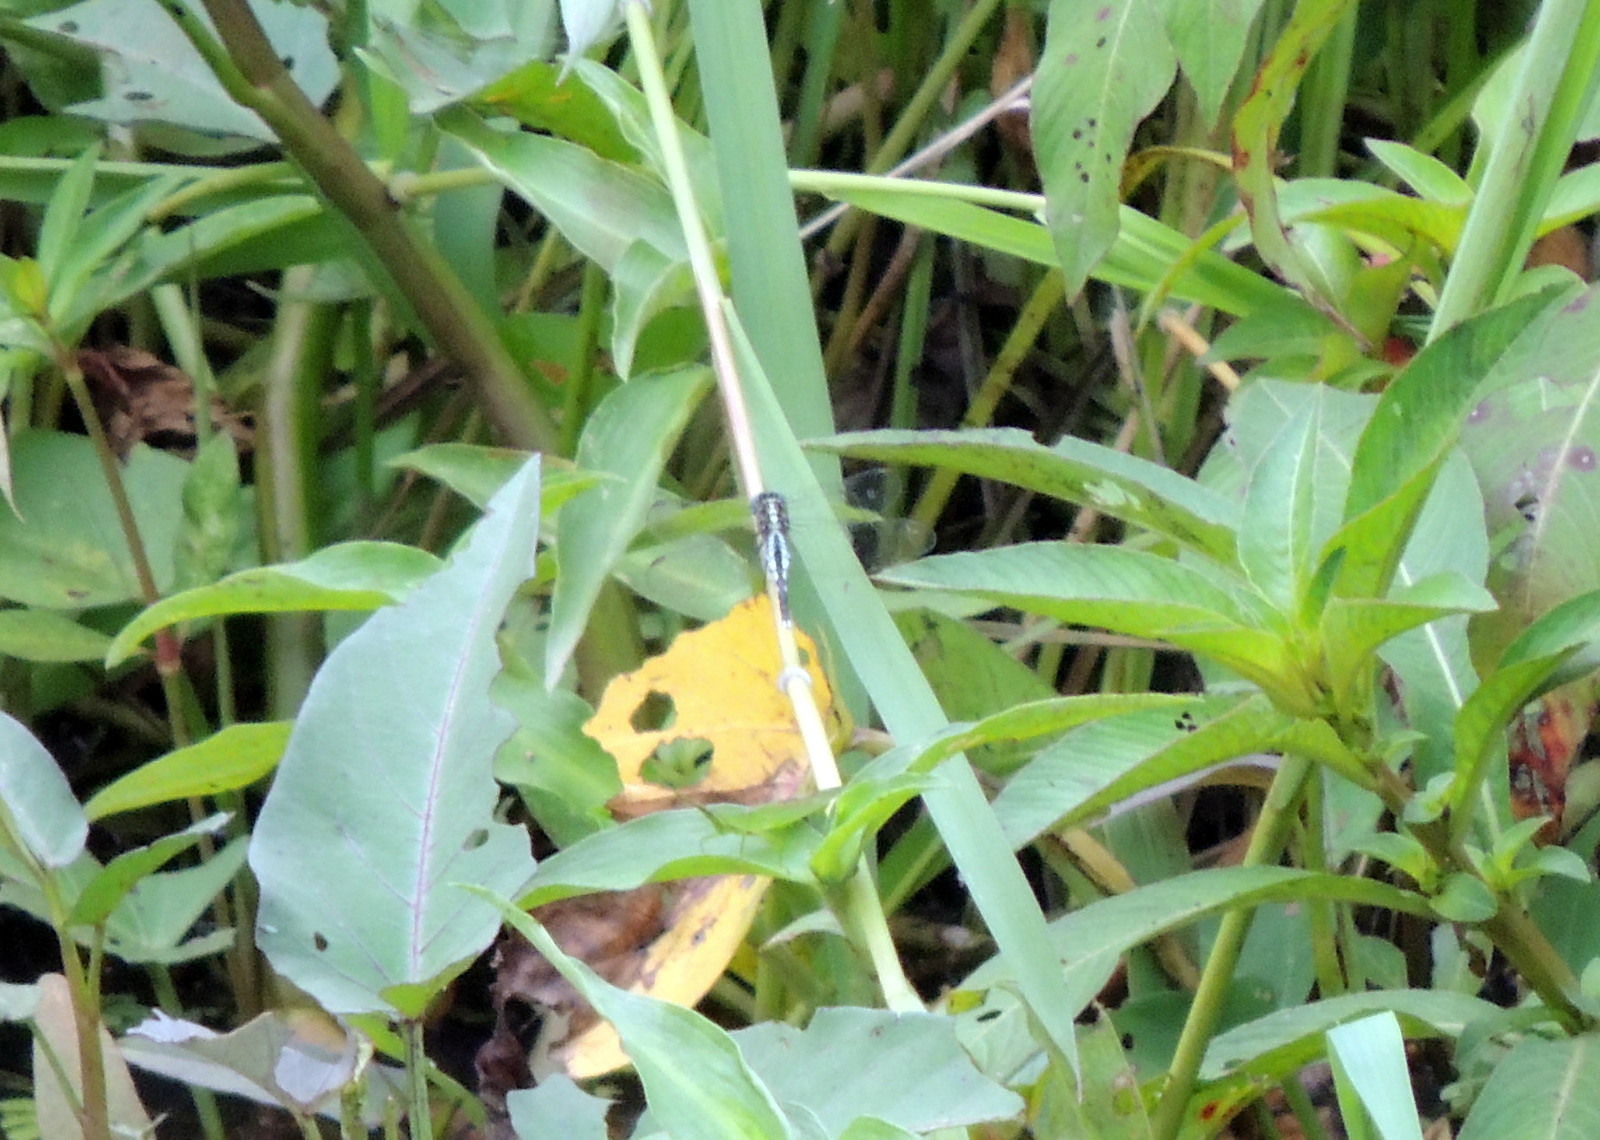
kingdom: Animalia
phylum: Arthropoda
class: Insecta
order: Odonata
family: Libellulidae
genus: Acisoma
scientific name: Acisoma inflatum
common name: Stout pintail
